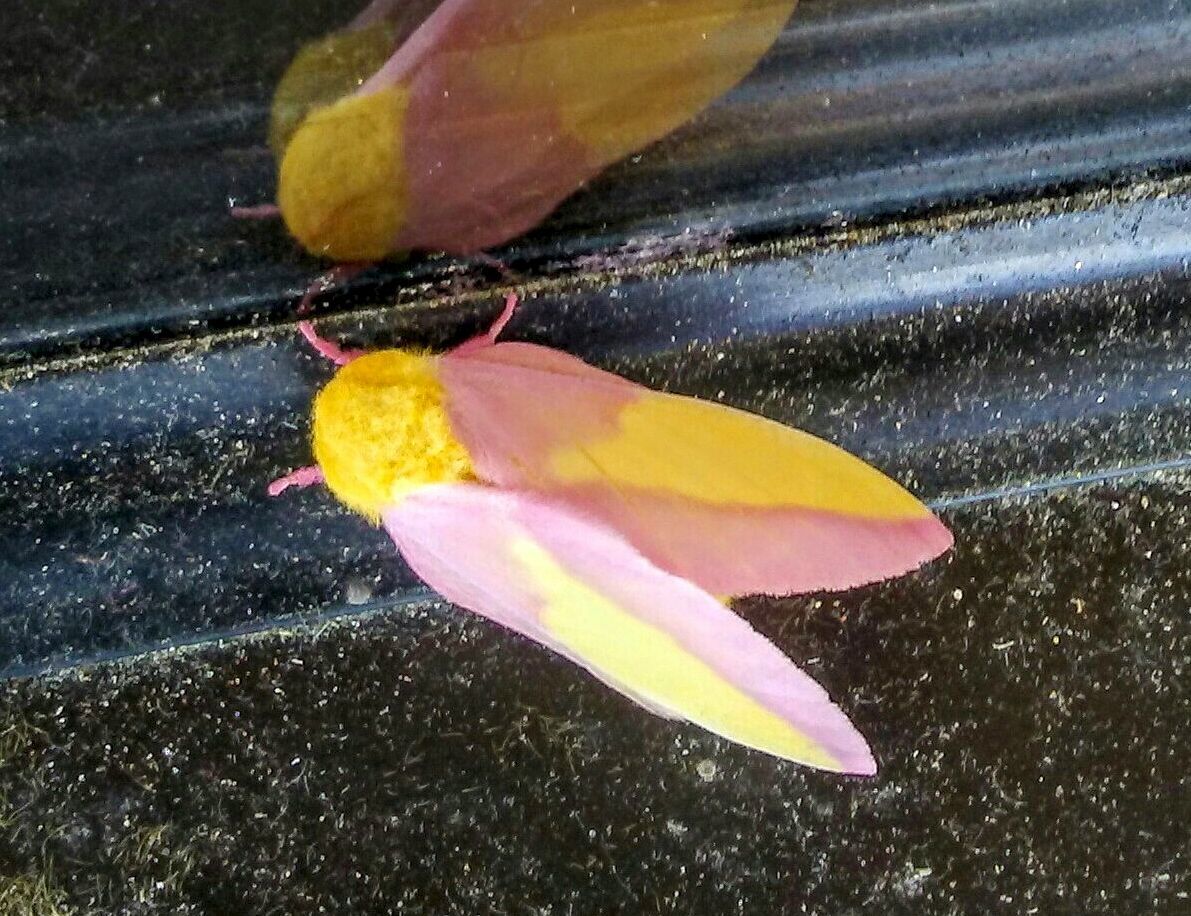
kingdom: Animalia
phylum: Arthropoda
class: Insecta
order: Lepidoptera
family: Saturniidae
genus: Dryocampa
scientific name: Dryocampa rubicunda
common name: Rosy maple moth
